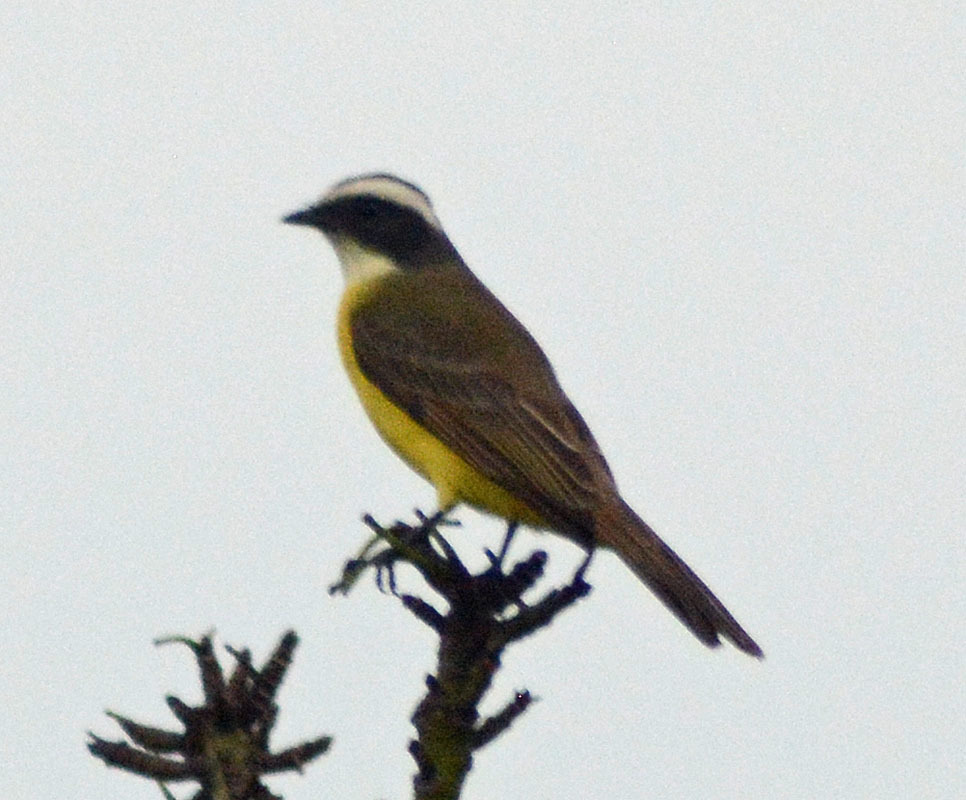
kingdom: Animalia
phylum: Chordata
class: Aves
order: Passeriformes
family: Tyrannidae
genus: Myiozetetes
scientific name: Myiozetetes similis
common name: Social flycatcher
